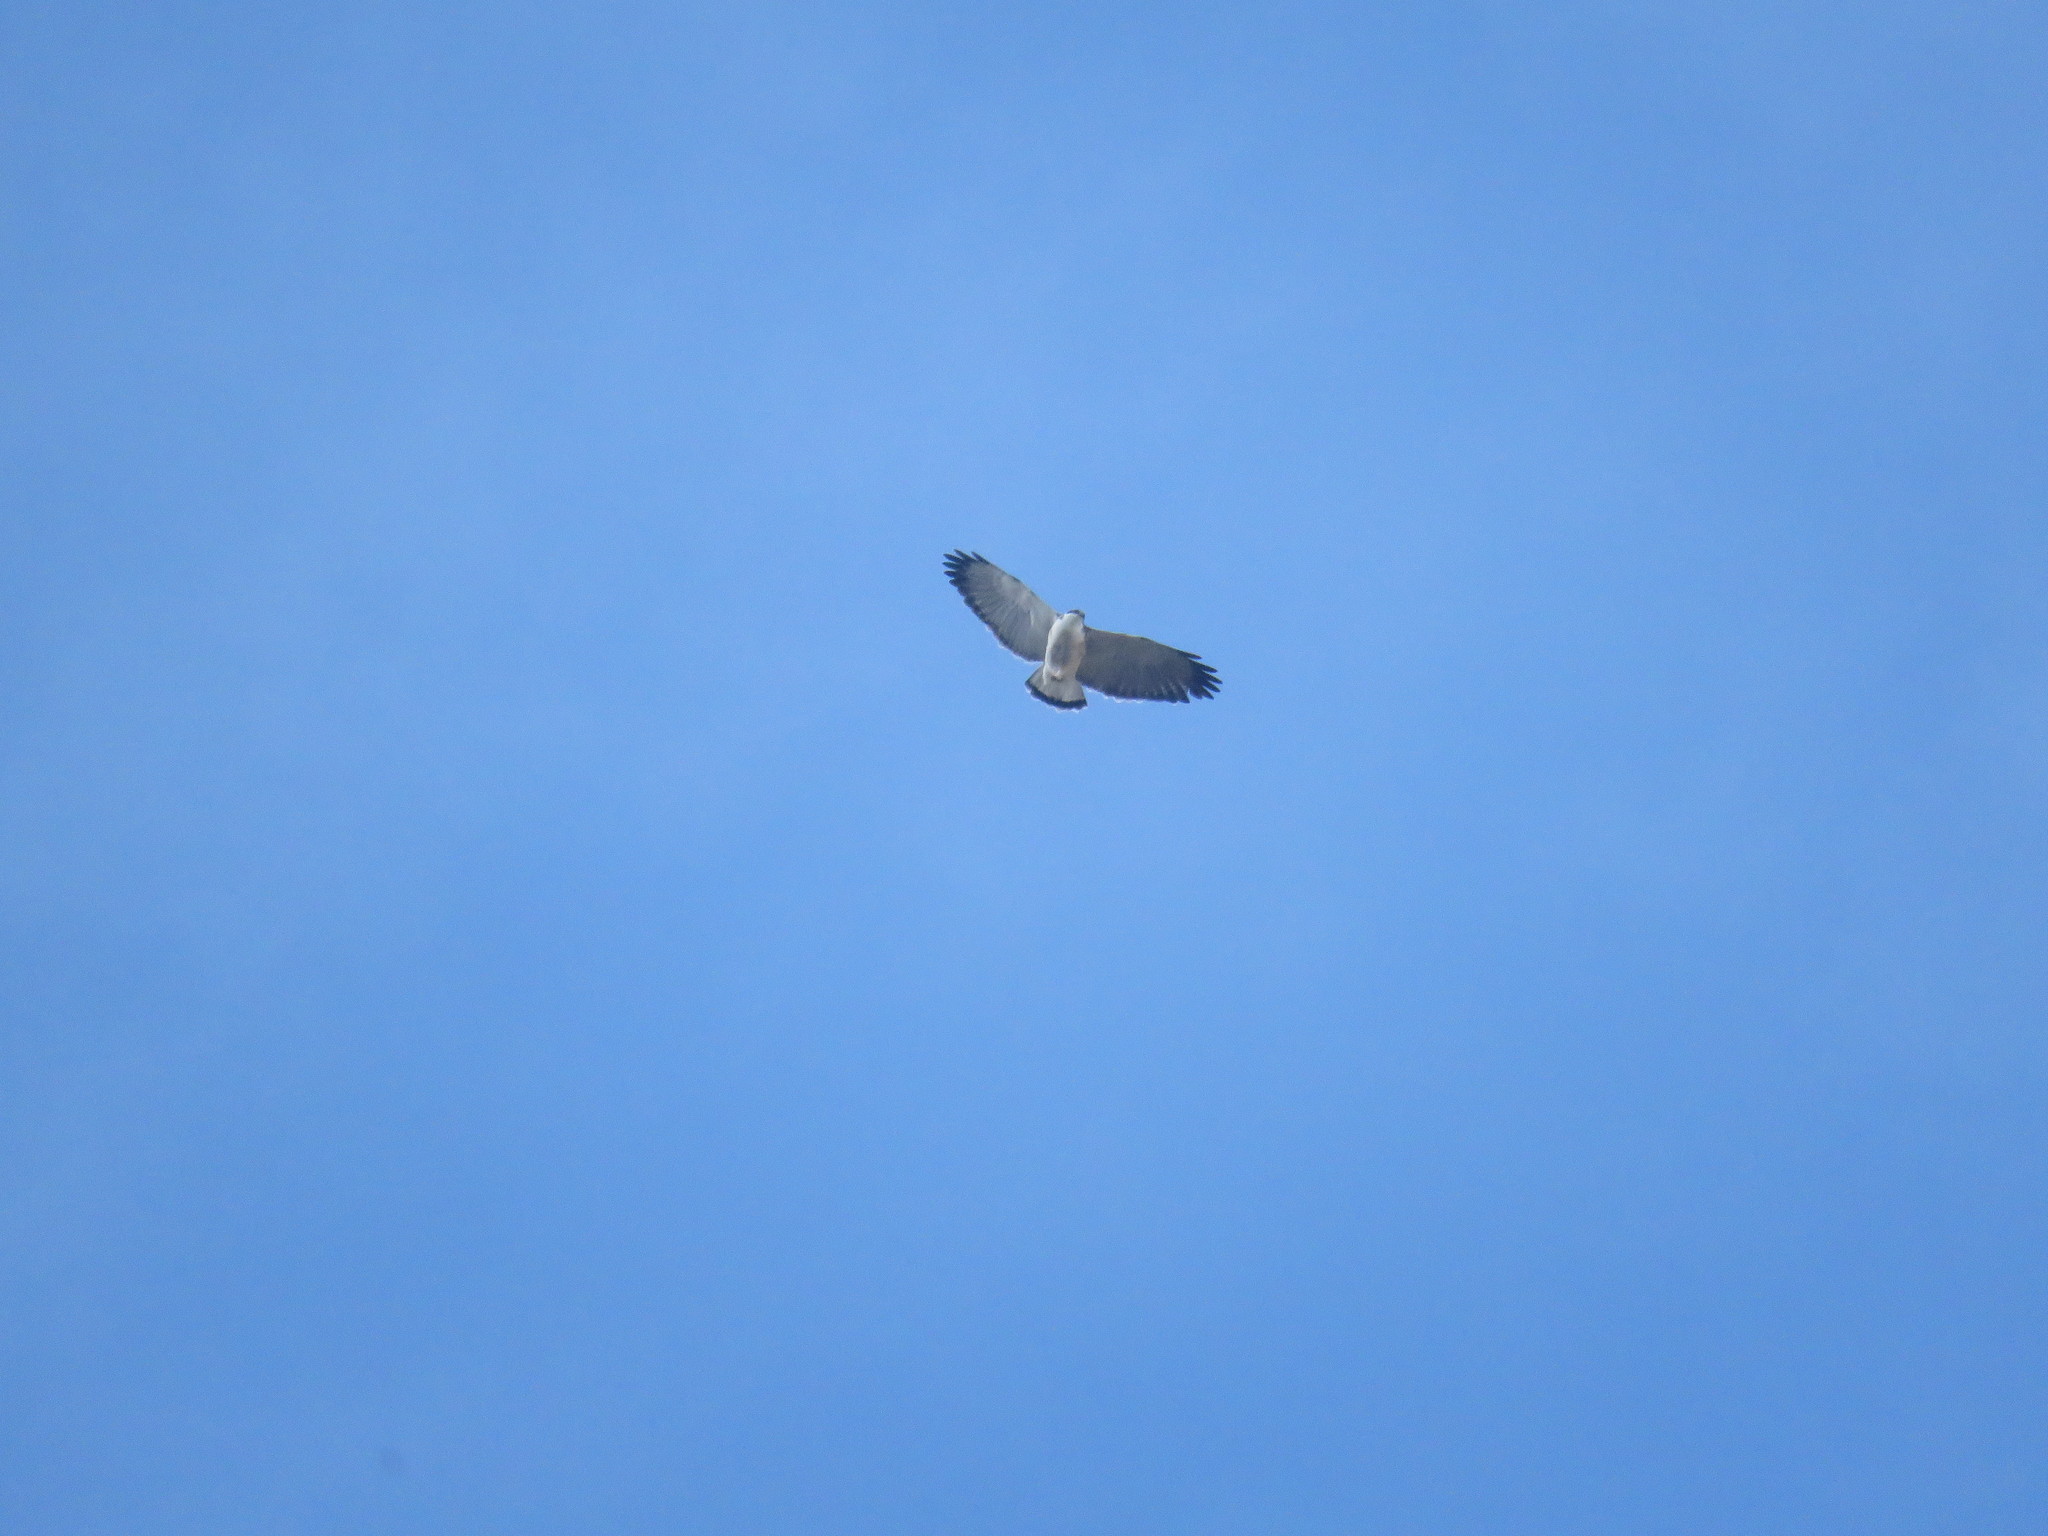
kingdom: Animalia
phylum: Chordata
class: Aves
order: Accipitriformes
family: Accipitridae
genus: Buteo
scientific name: Buteo polyosoma
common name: Variable hawk
